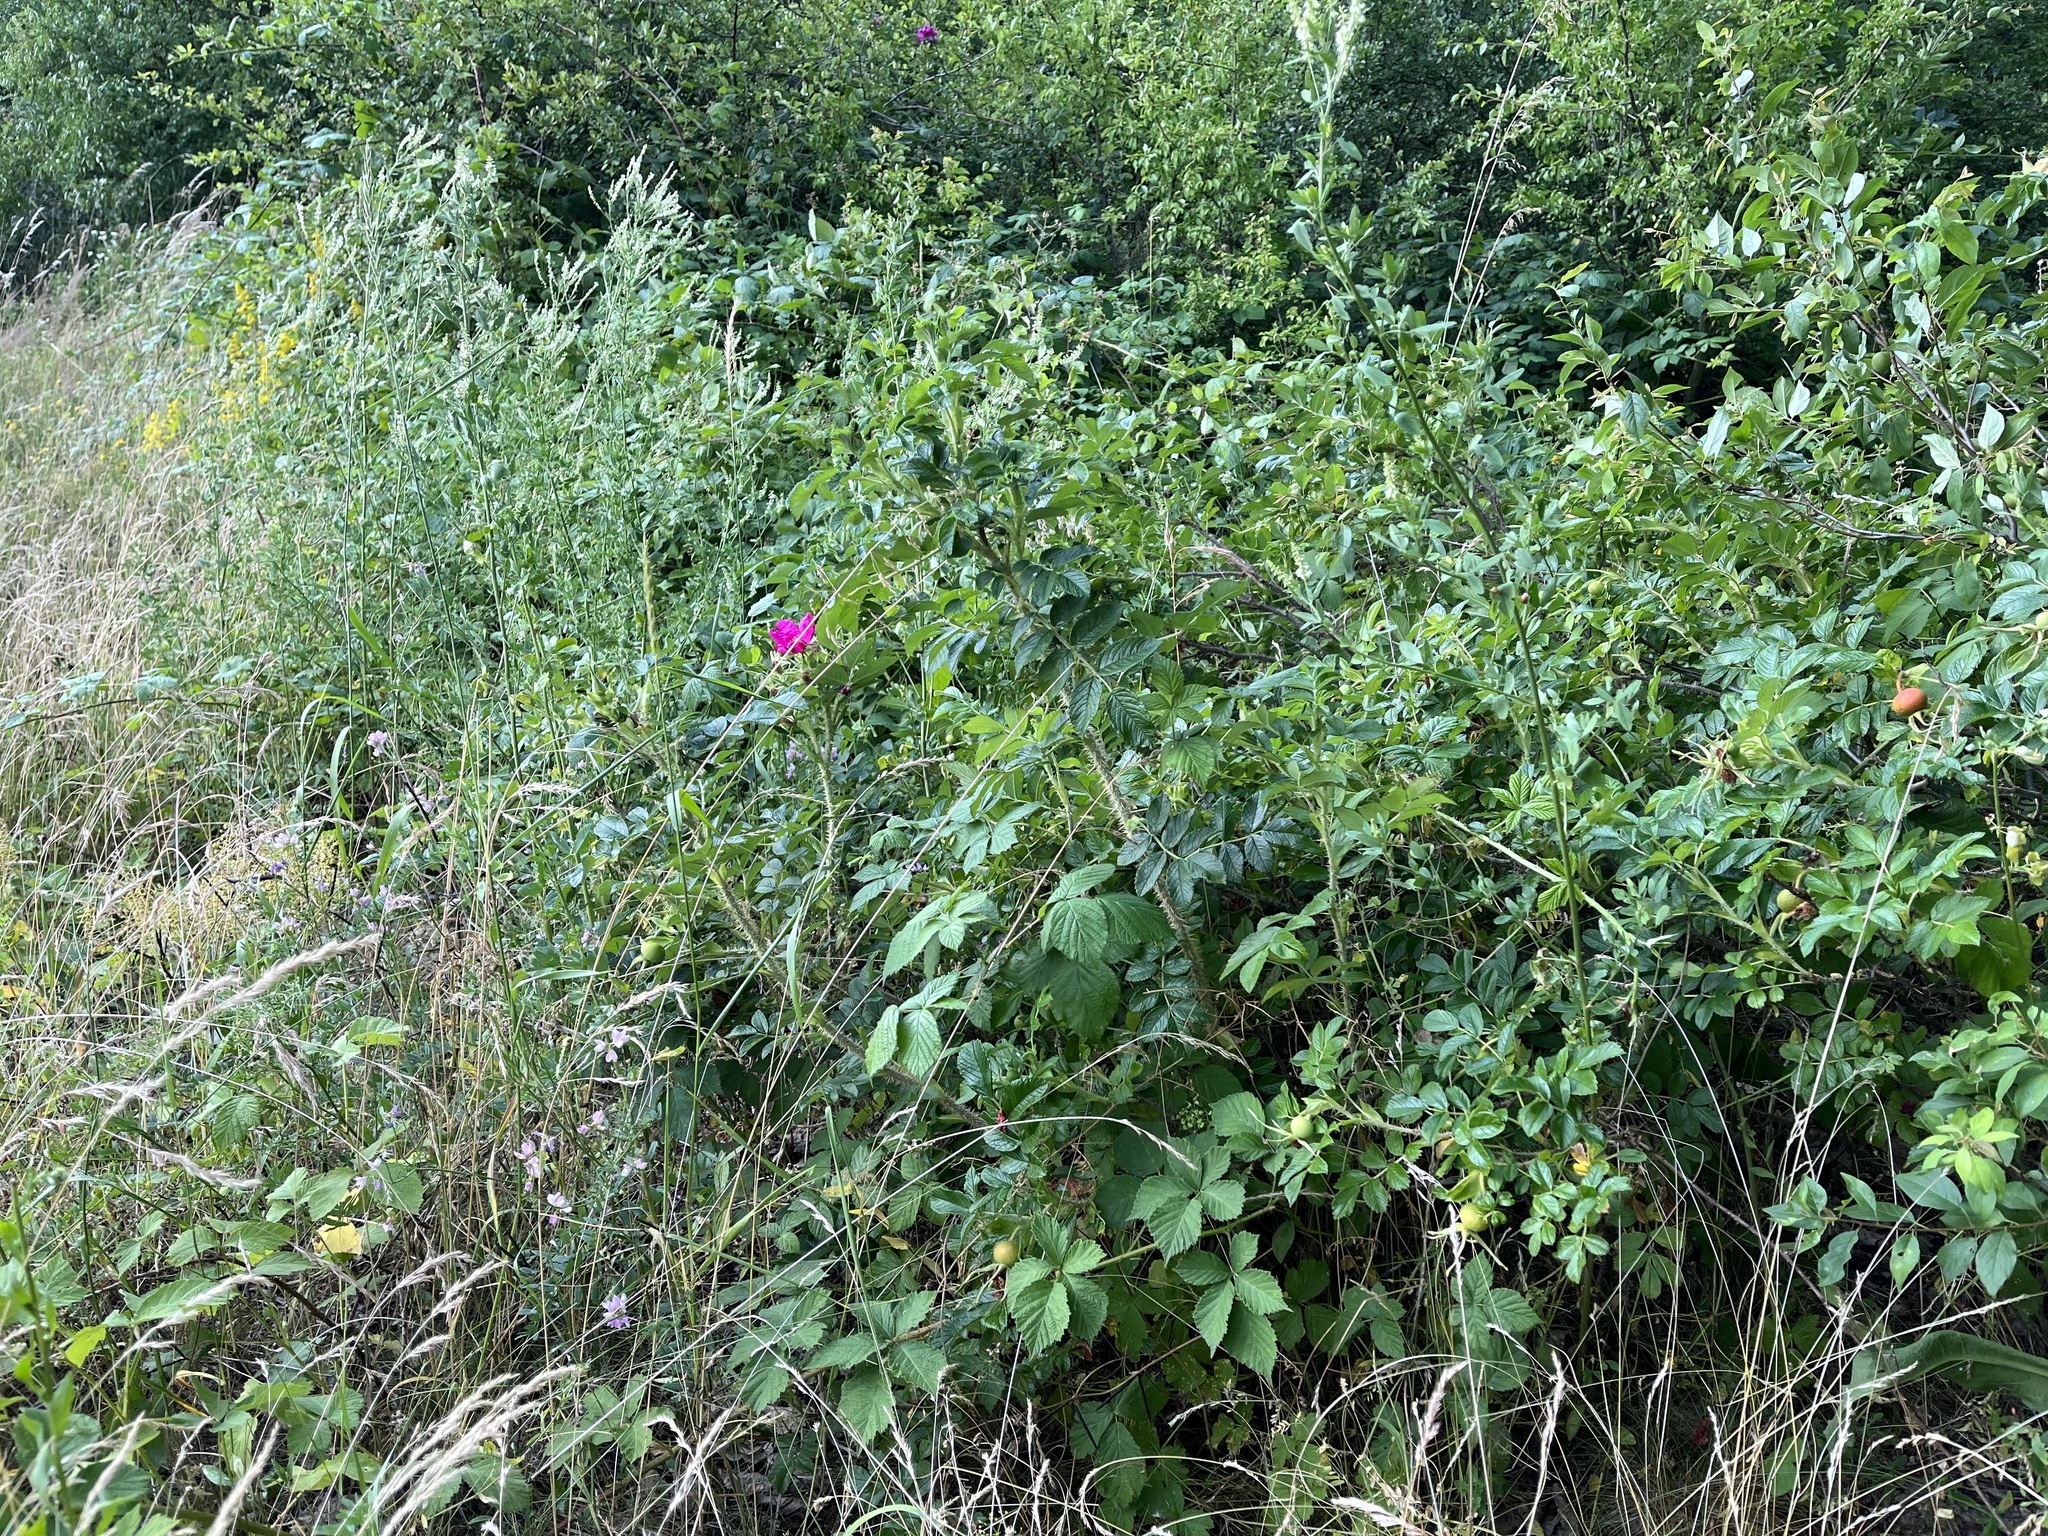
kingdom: Plantae
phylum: Tracheophyta
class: Magnoliopsida
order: Rosales
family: Rosaceae
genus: Rosa
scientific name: Rosa rugosa
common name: Japanese rose
